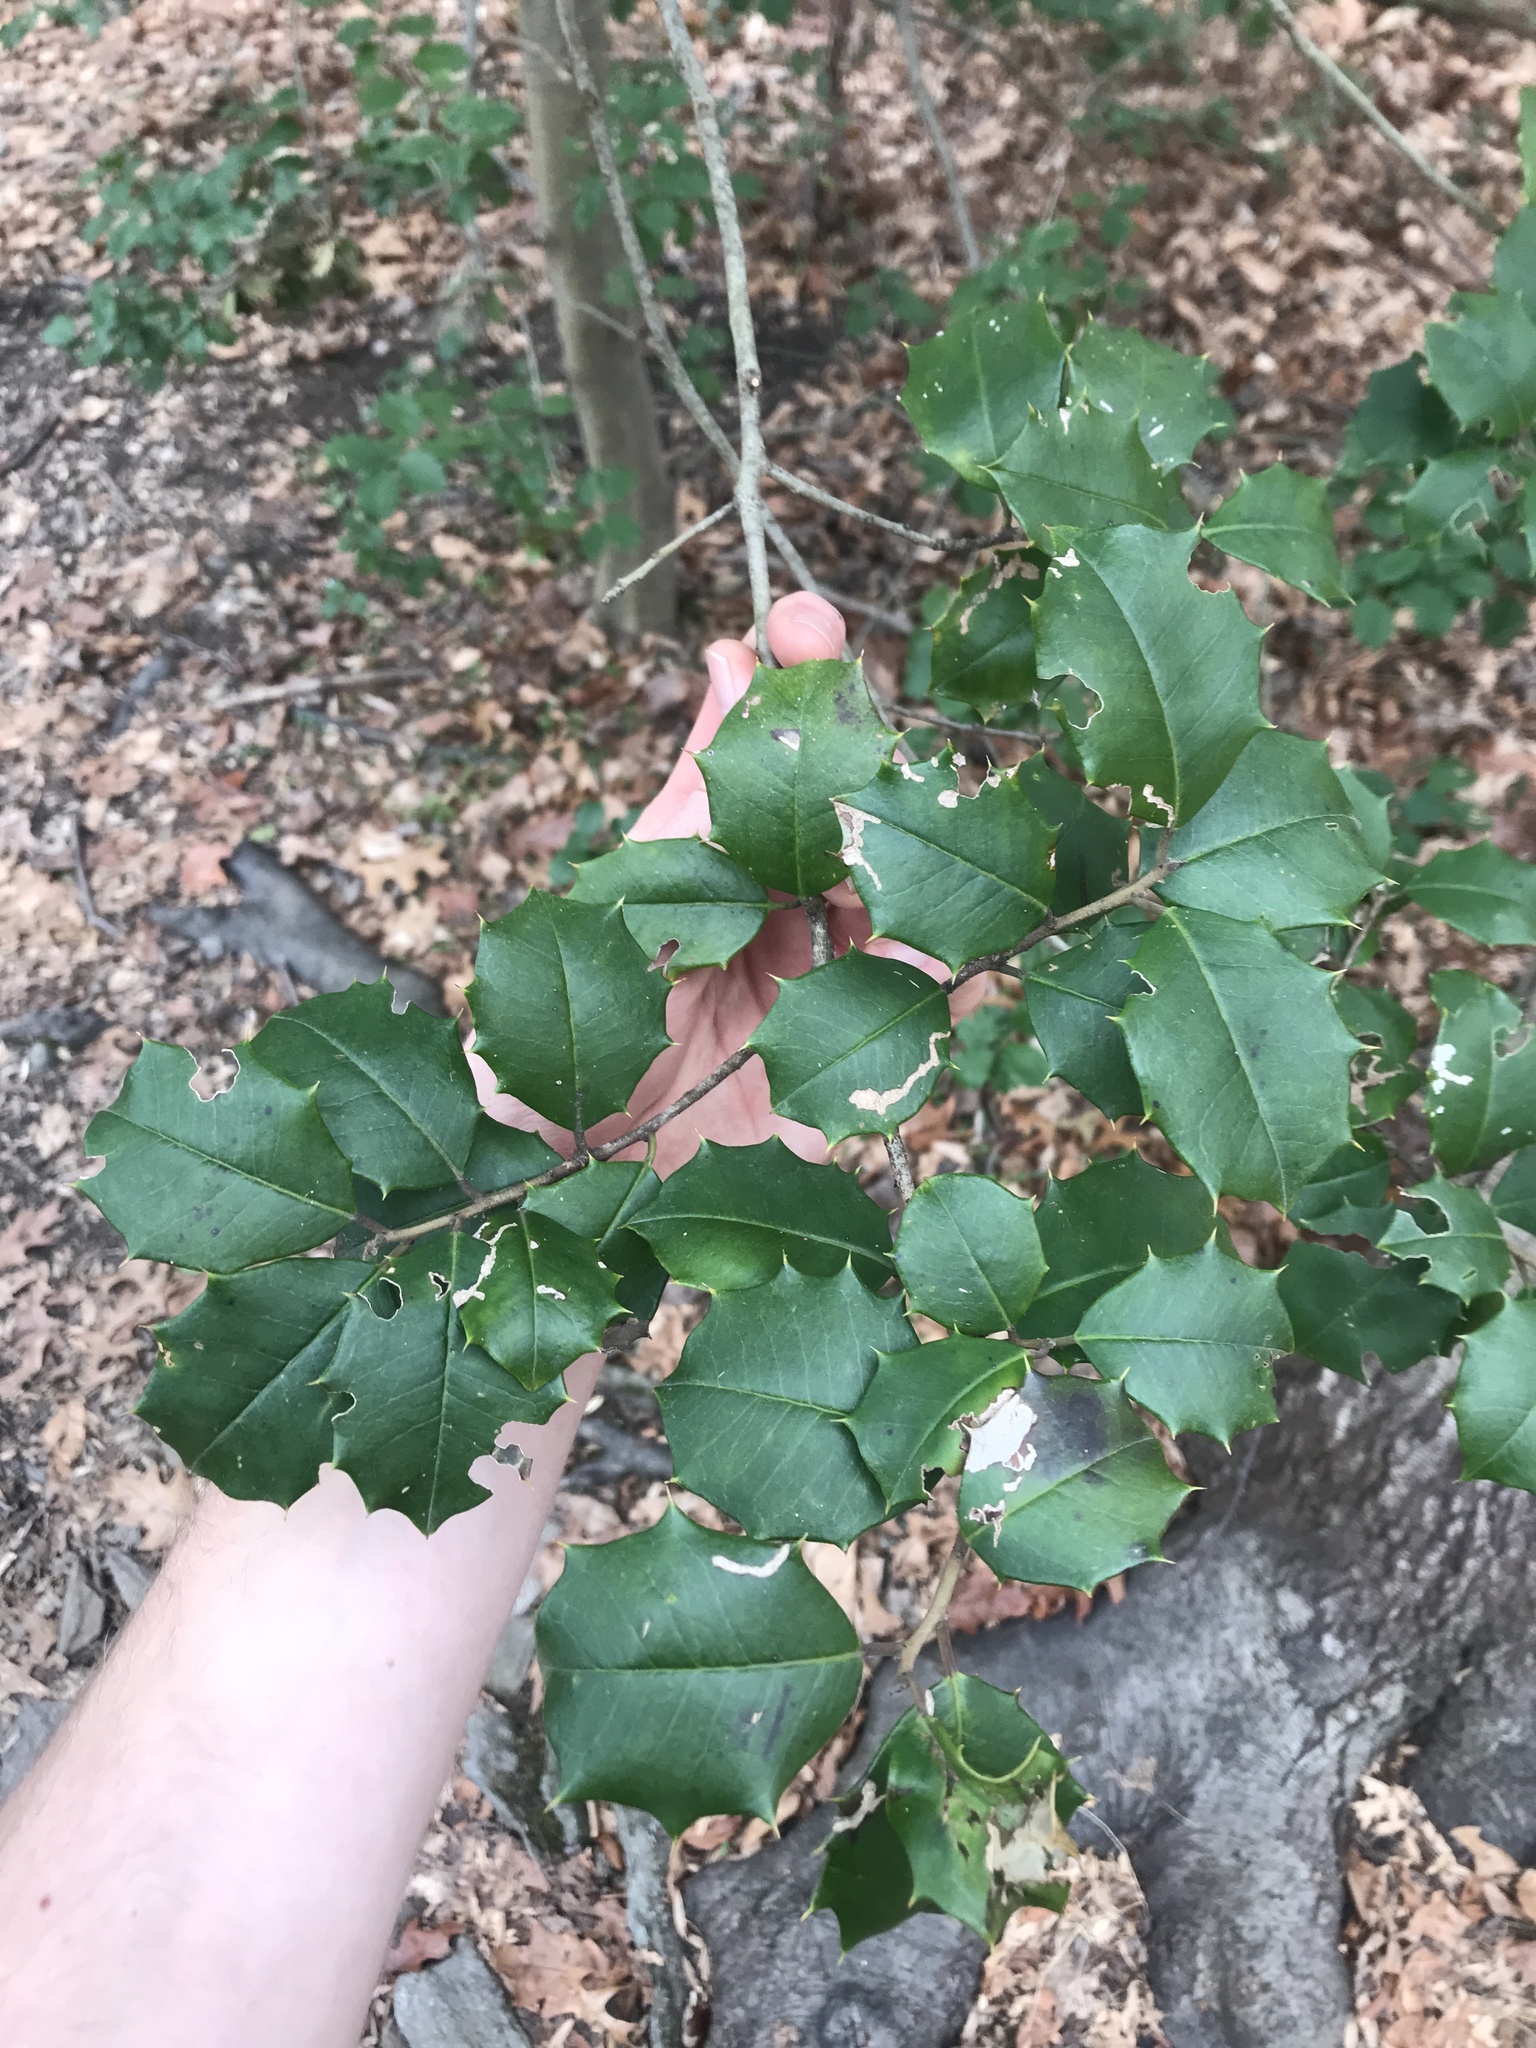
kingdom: Plantae
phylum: Tracheophyta
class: Magnoliopsida
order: Aquifoliales
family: Aquifoliaceae
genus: Ilex
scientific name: Ilex opaca
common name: American holly
